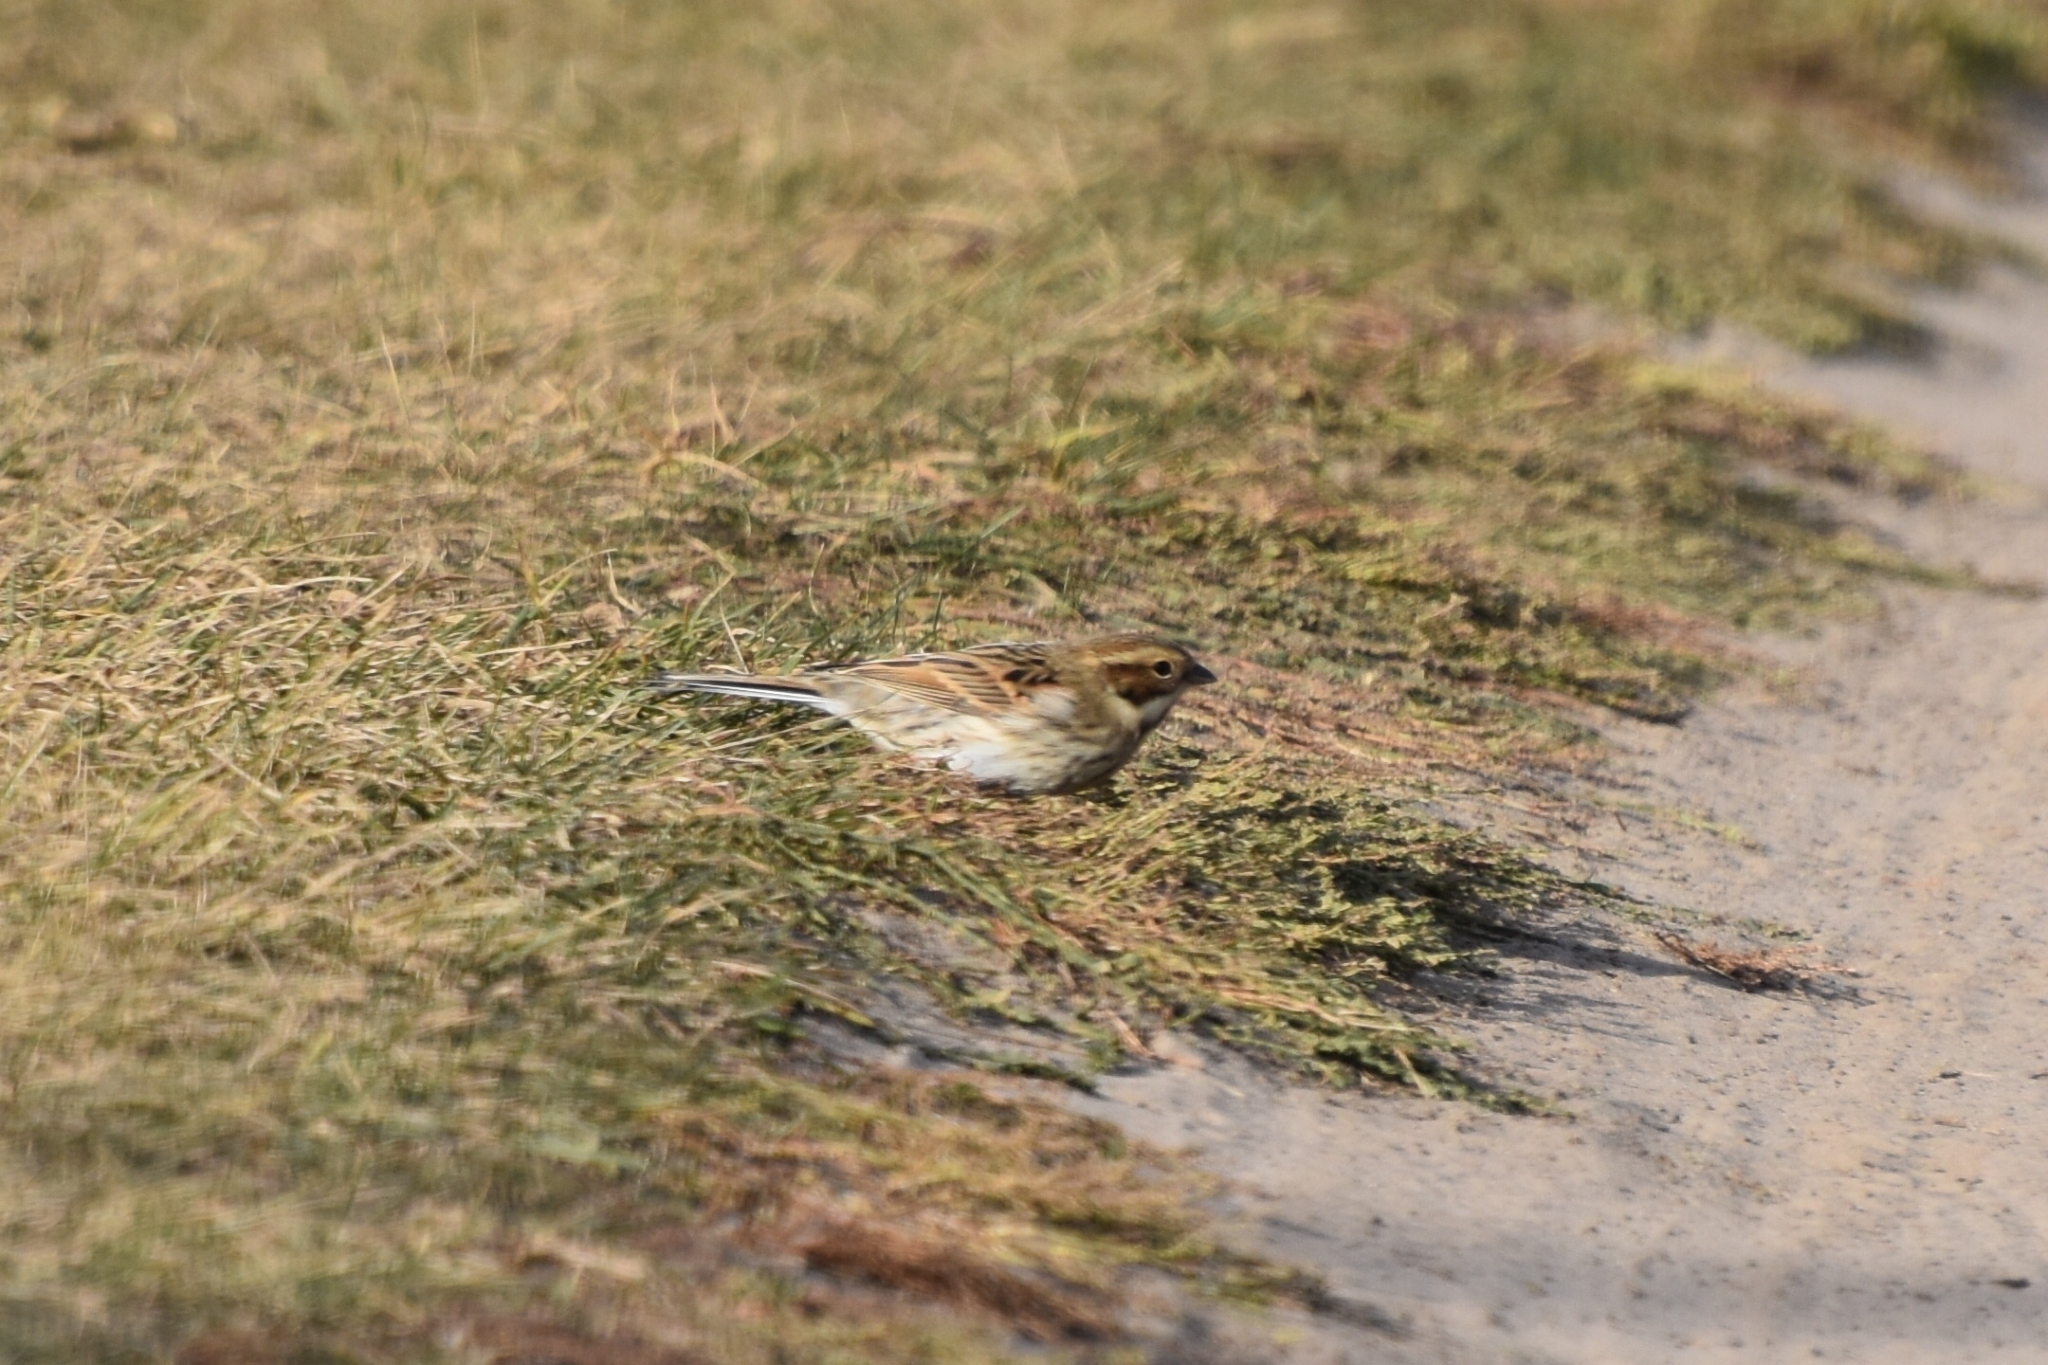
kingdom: Animalia
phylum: Chordata
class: Aves
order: Passeriformes
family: Emberizidae
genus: Emberiza
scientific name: Emberiza schoeniclus
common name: Reed bunting
